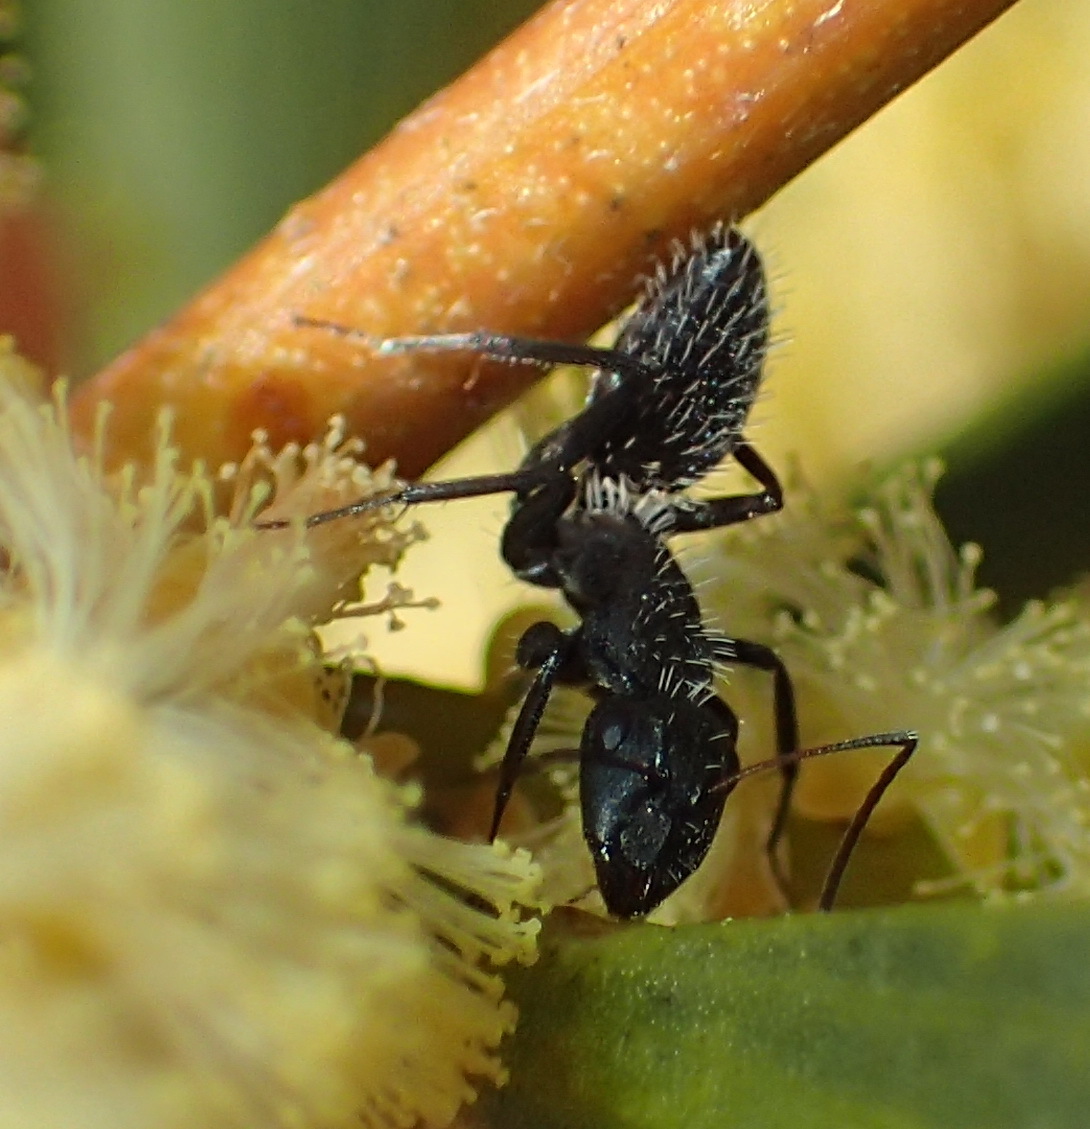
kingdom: Animalia
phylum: Arthropoda
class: Insecta
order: Hymenoptera
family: Formicidae
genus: Camponotus
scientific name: Camponotus niveosetosus
